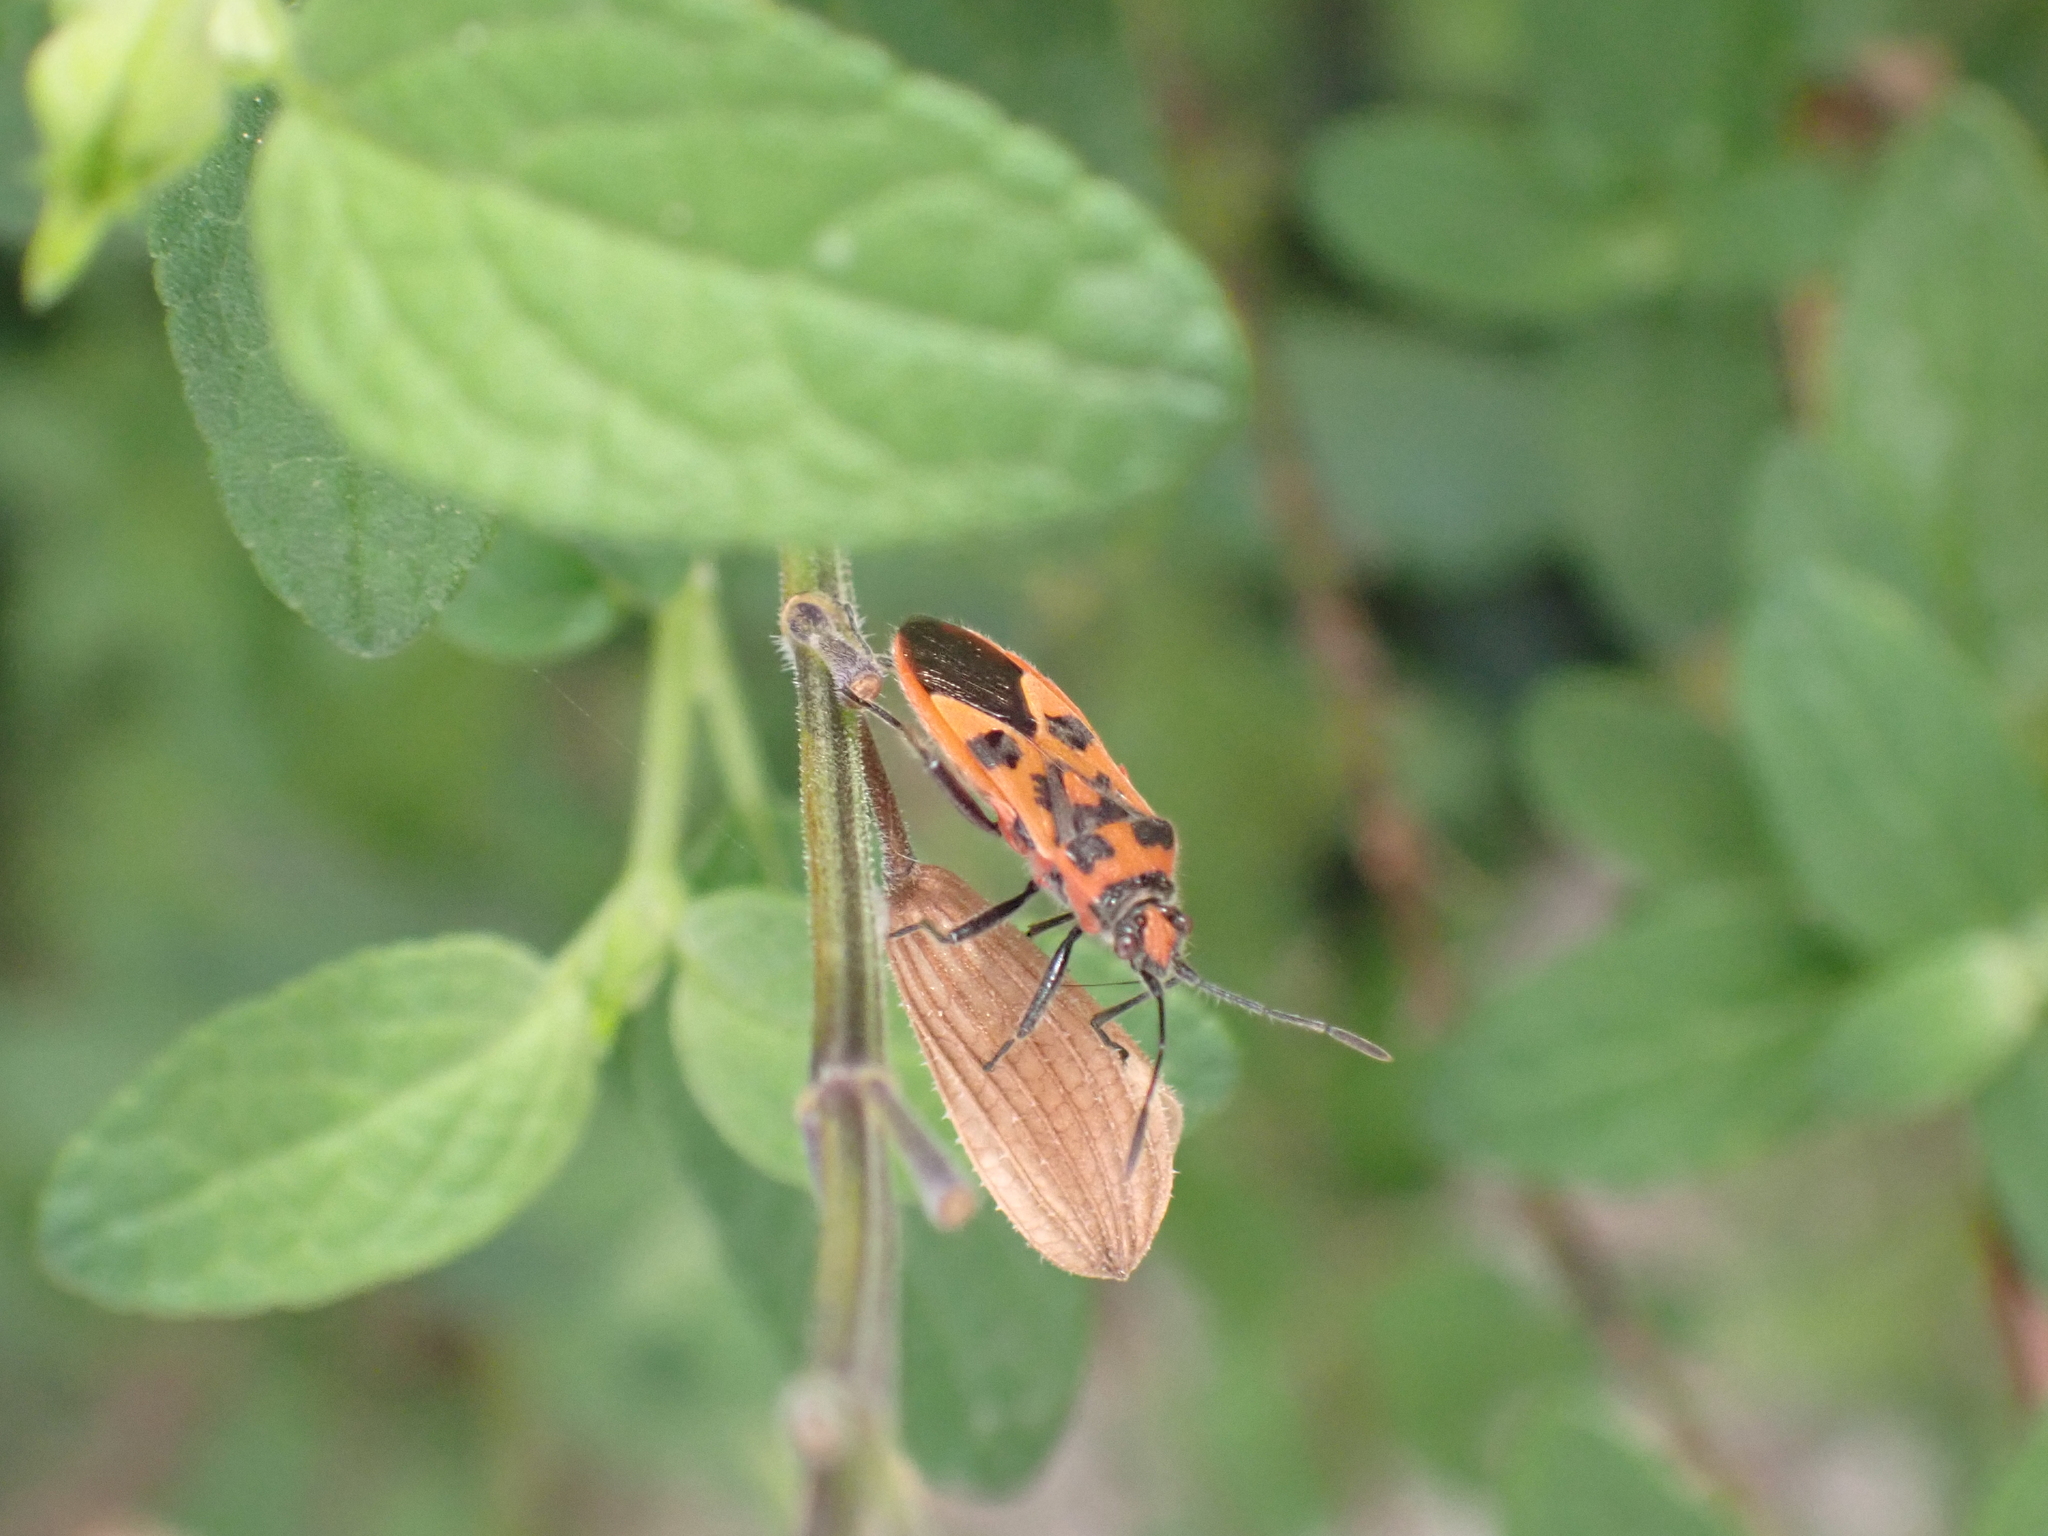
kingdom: Animalia
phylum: Arthropoda
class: Insecta
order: Hemiptera
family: Rhopalidae
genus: Corizus
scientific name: Corizus hyoscyami
